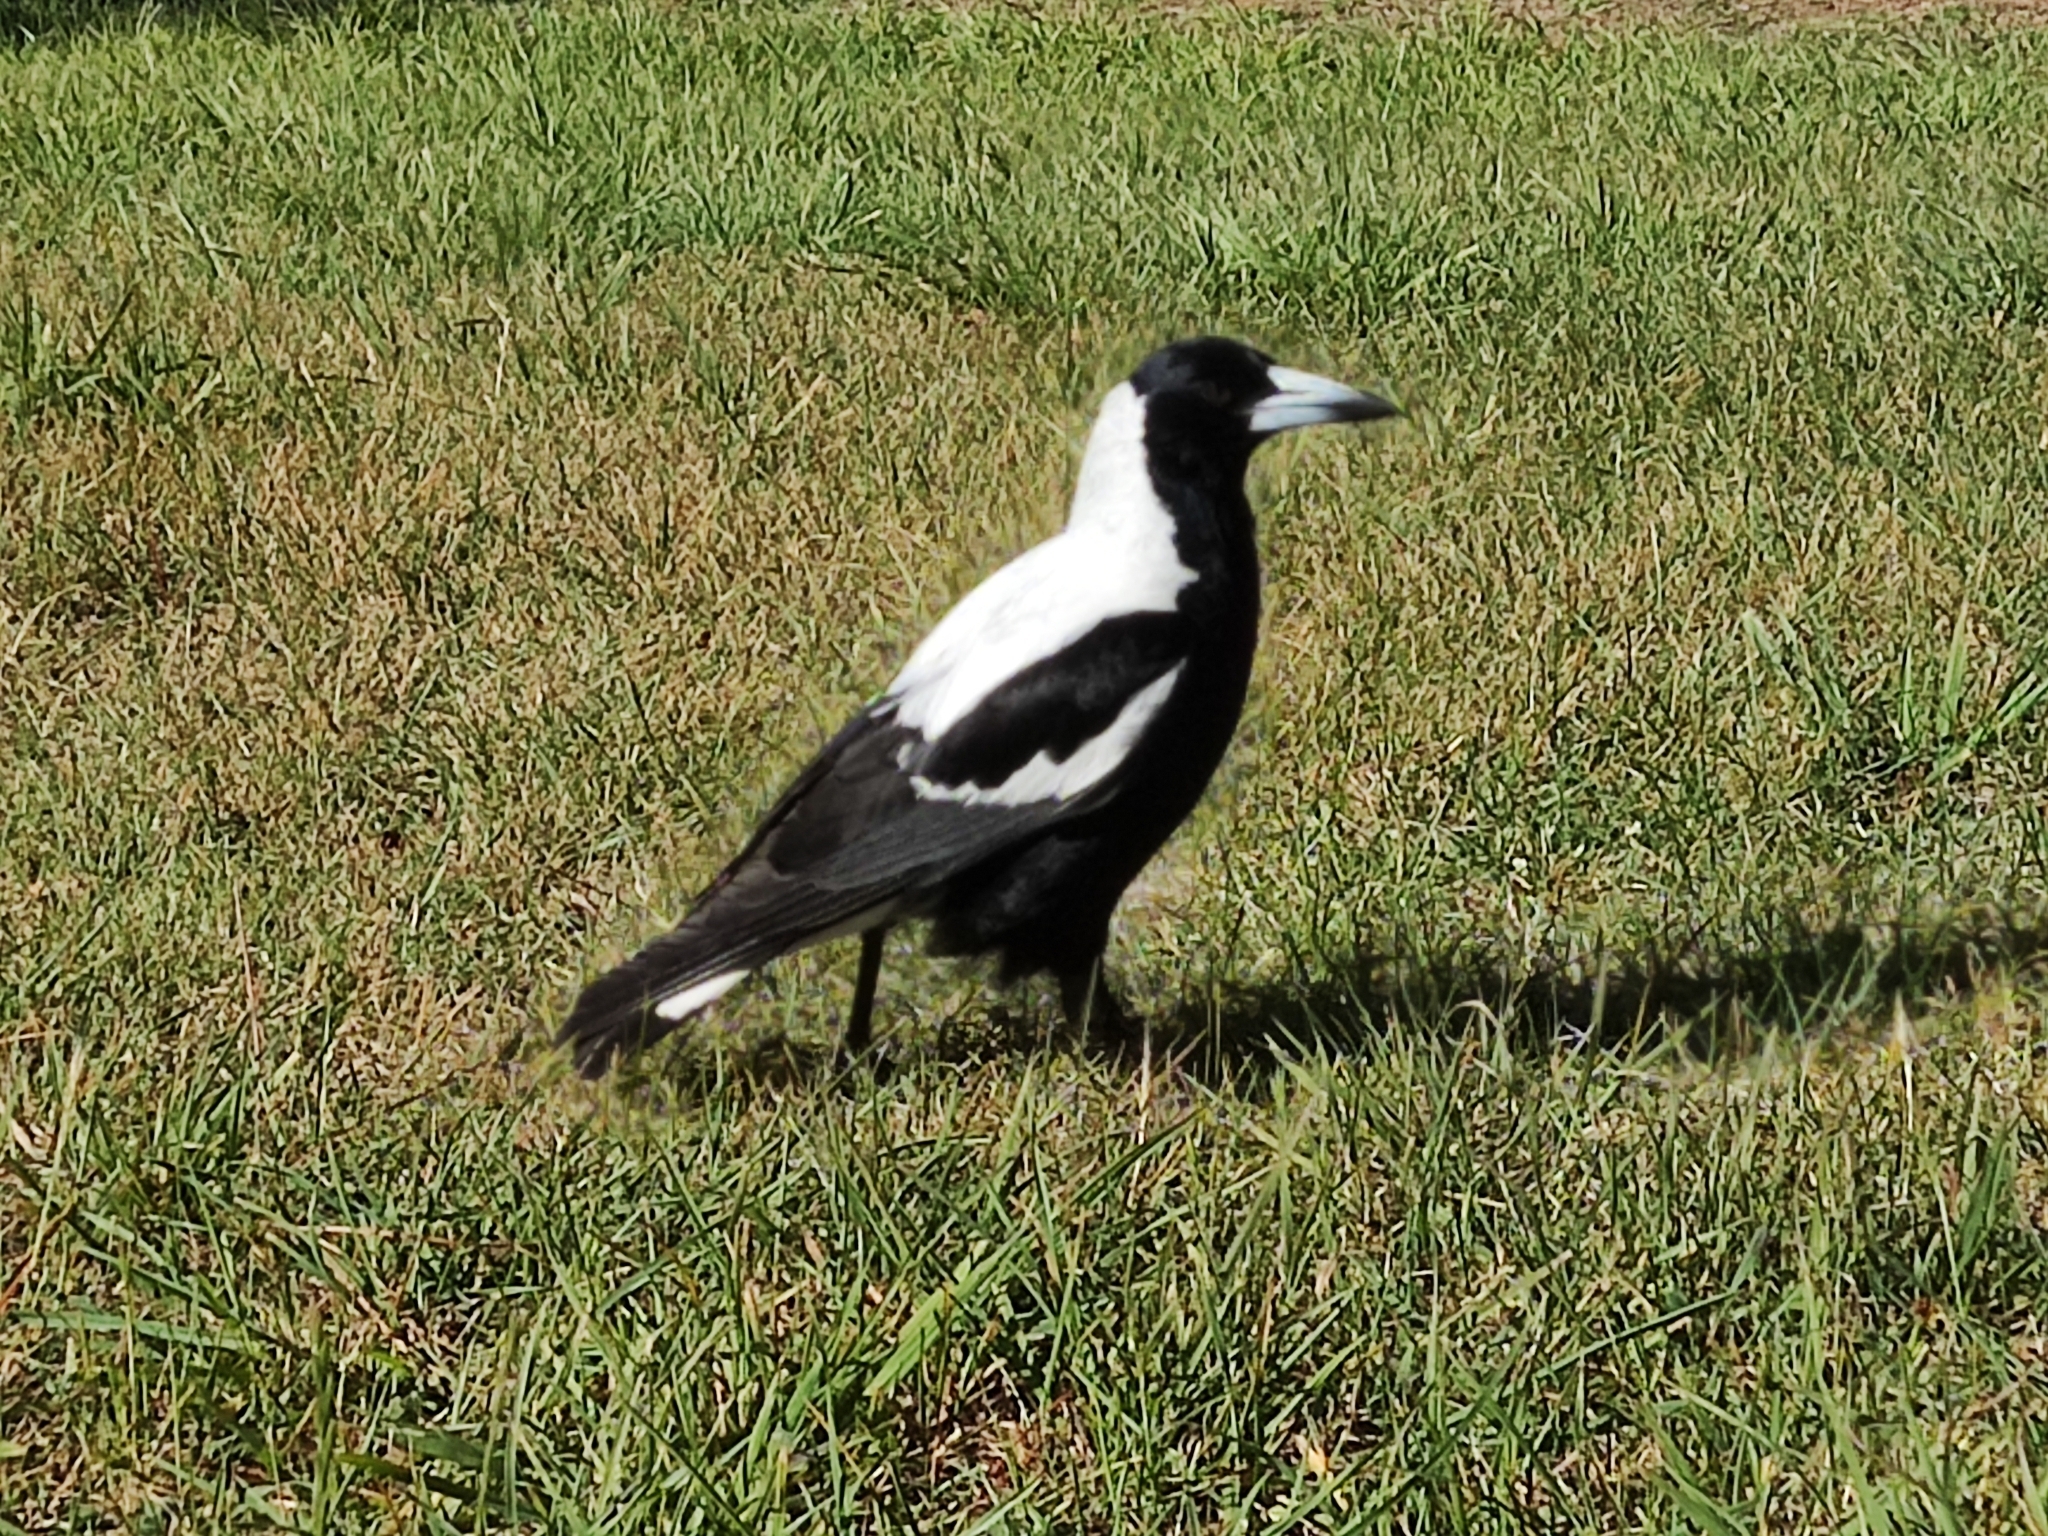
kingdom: Animalia
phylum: Chordata
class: Aves
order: Passeriformes
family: Cracticidae
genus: Gymnorhina
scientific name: Gymnorhina tibicen
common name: Australian magpie
